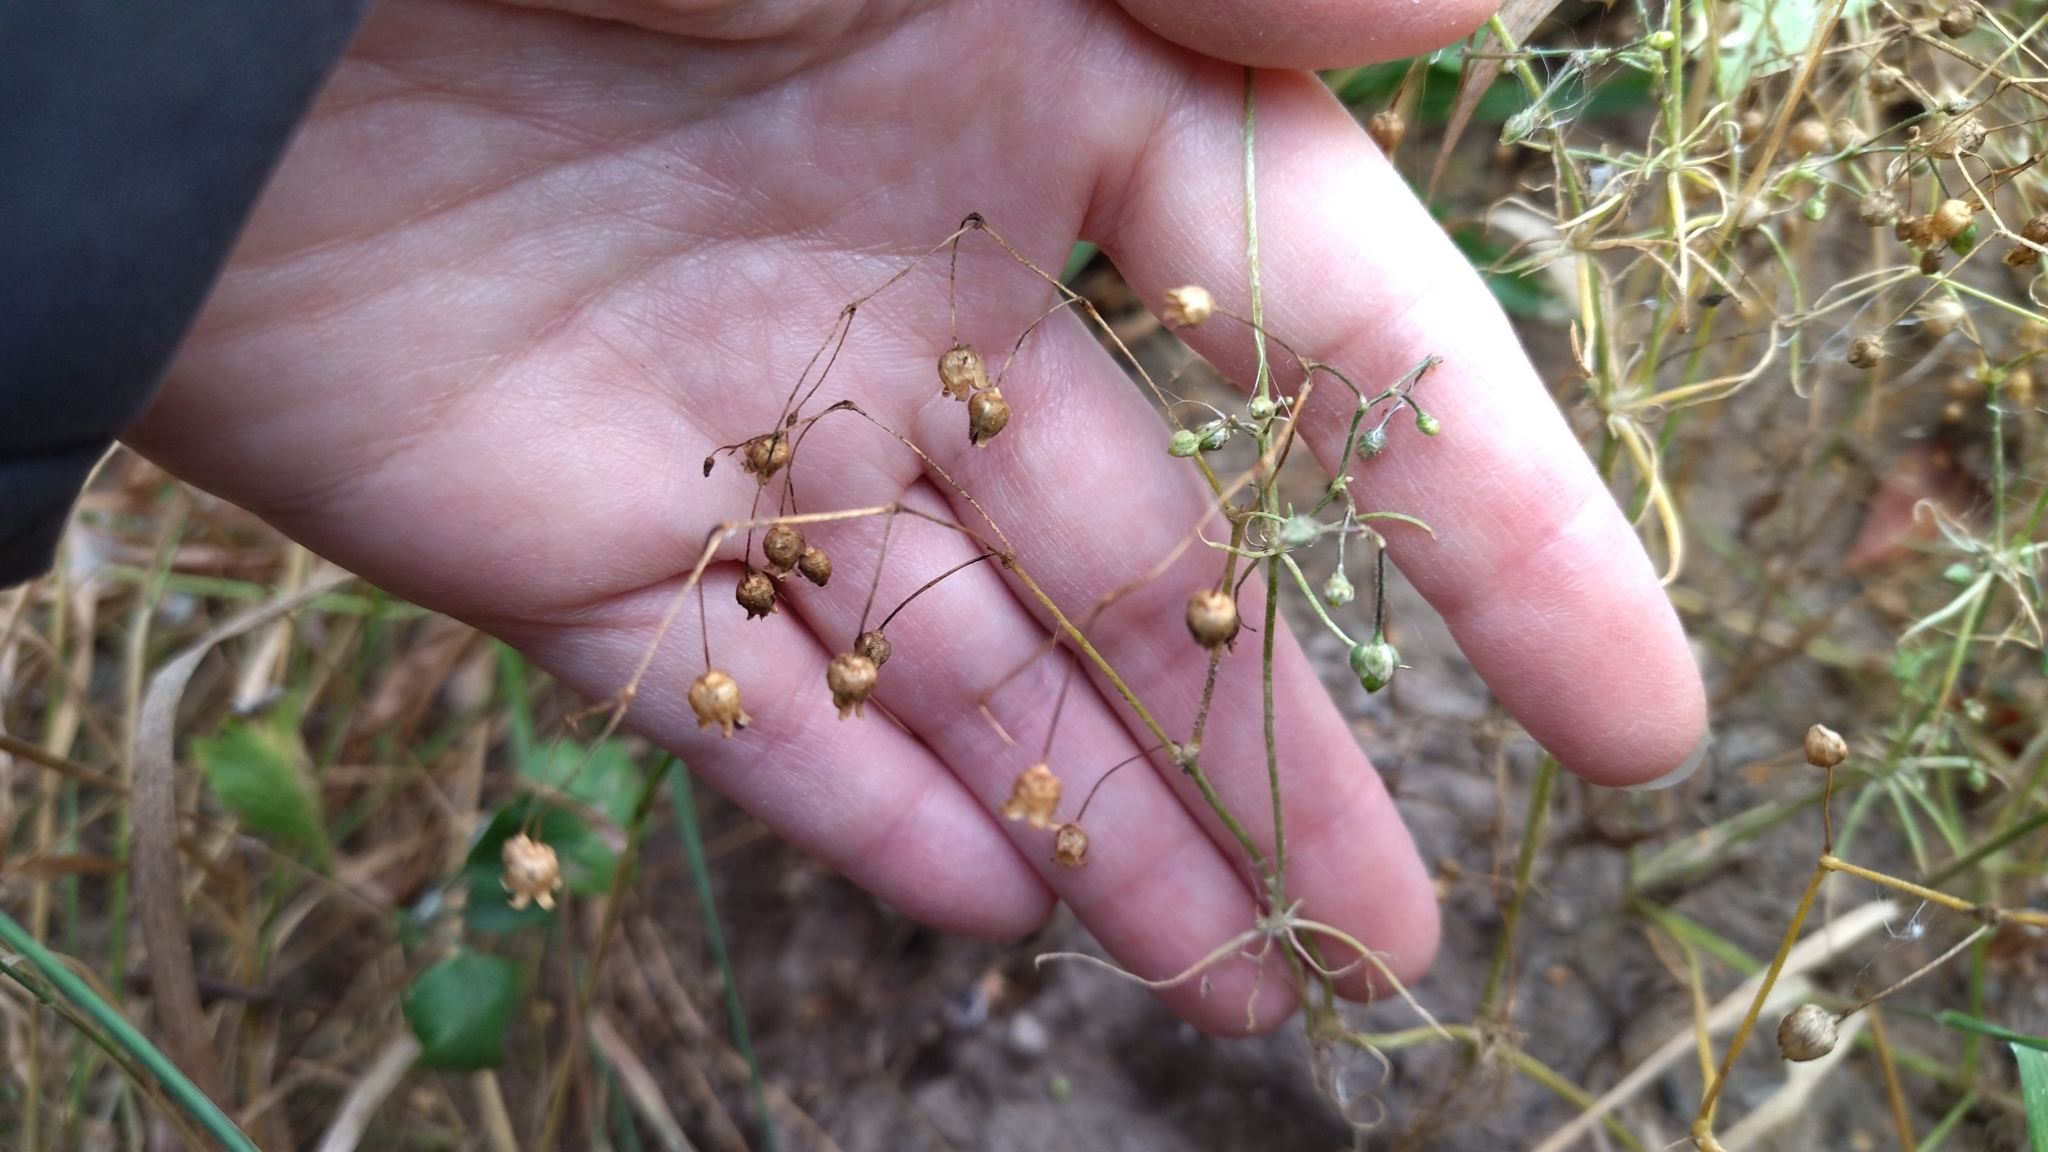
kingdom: Plantae
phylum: Tracheophyta
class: Magnoliopsida
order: Caryophyllales
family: Caryophyllaceae
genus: Spergula
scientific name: Spergula arvensis
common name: Corn spurrey
